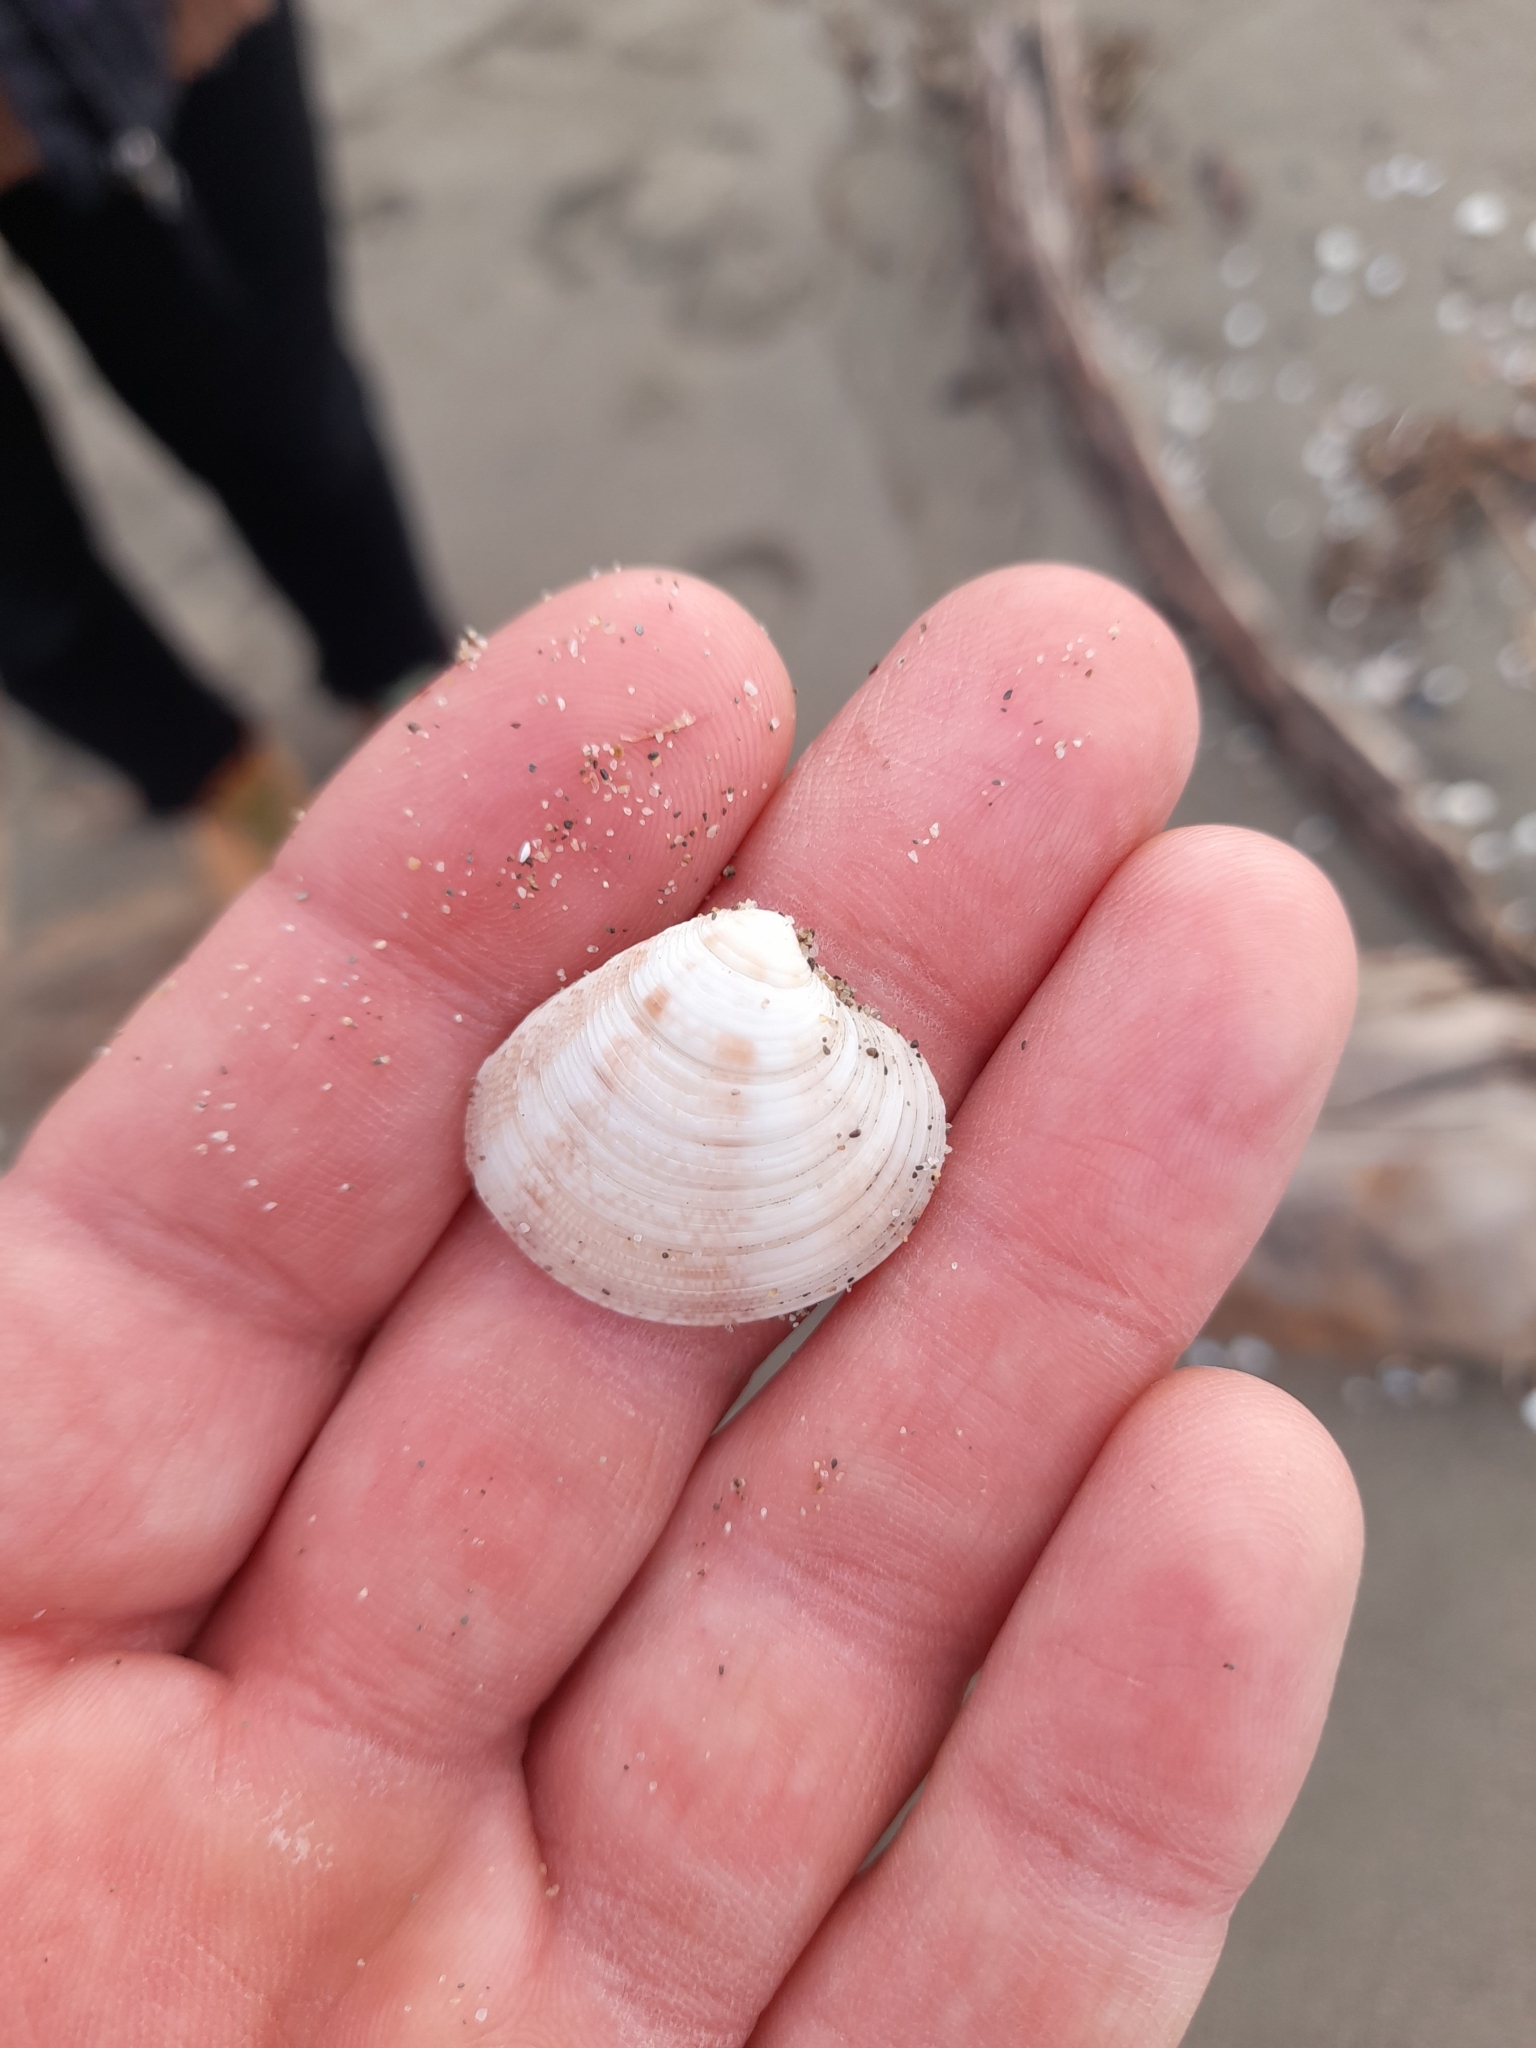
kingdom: Animalia
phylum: Mollusca
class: Bivalvia
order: Venerida
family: Veneridae
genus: Chamelea
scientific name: Chamelea gallina
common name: Chicken venus
